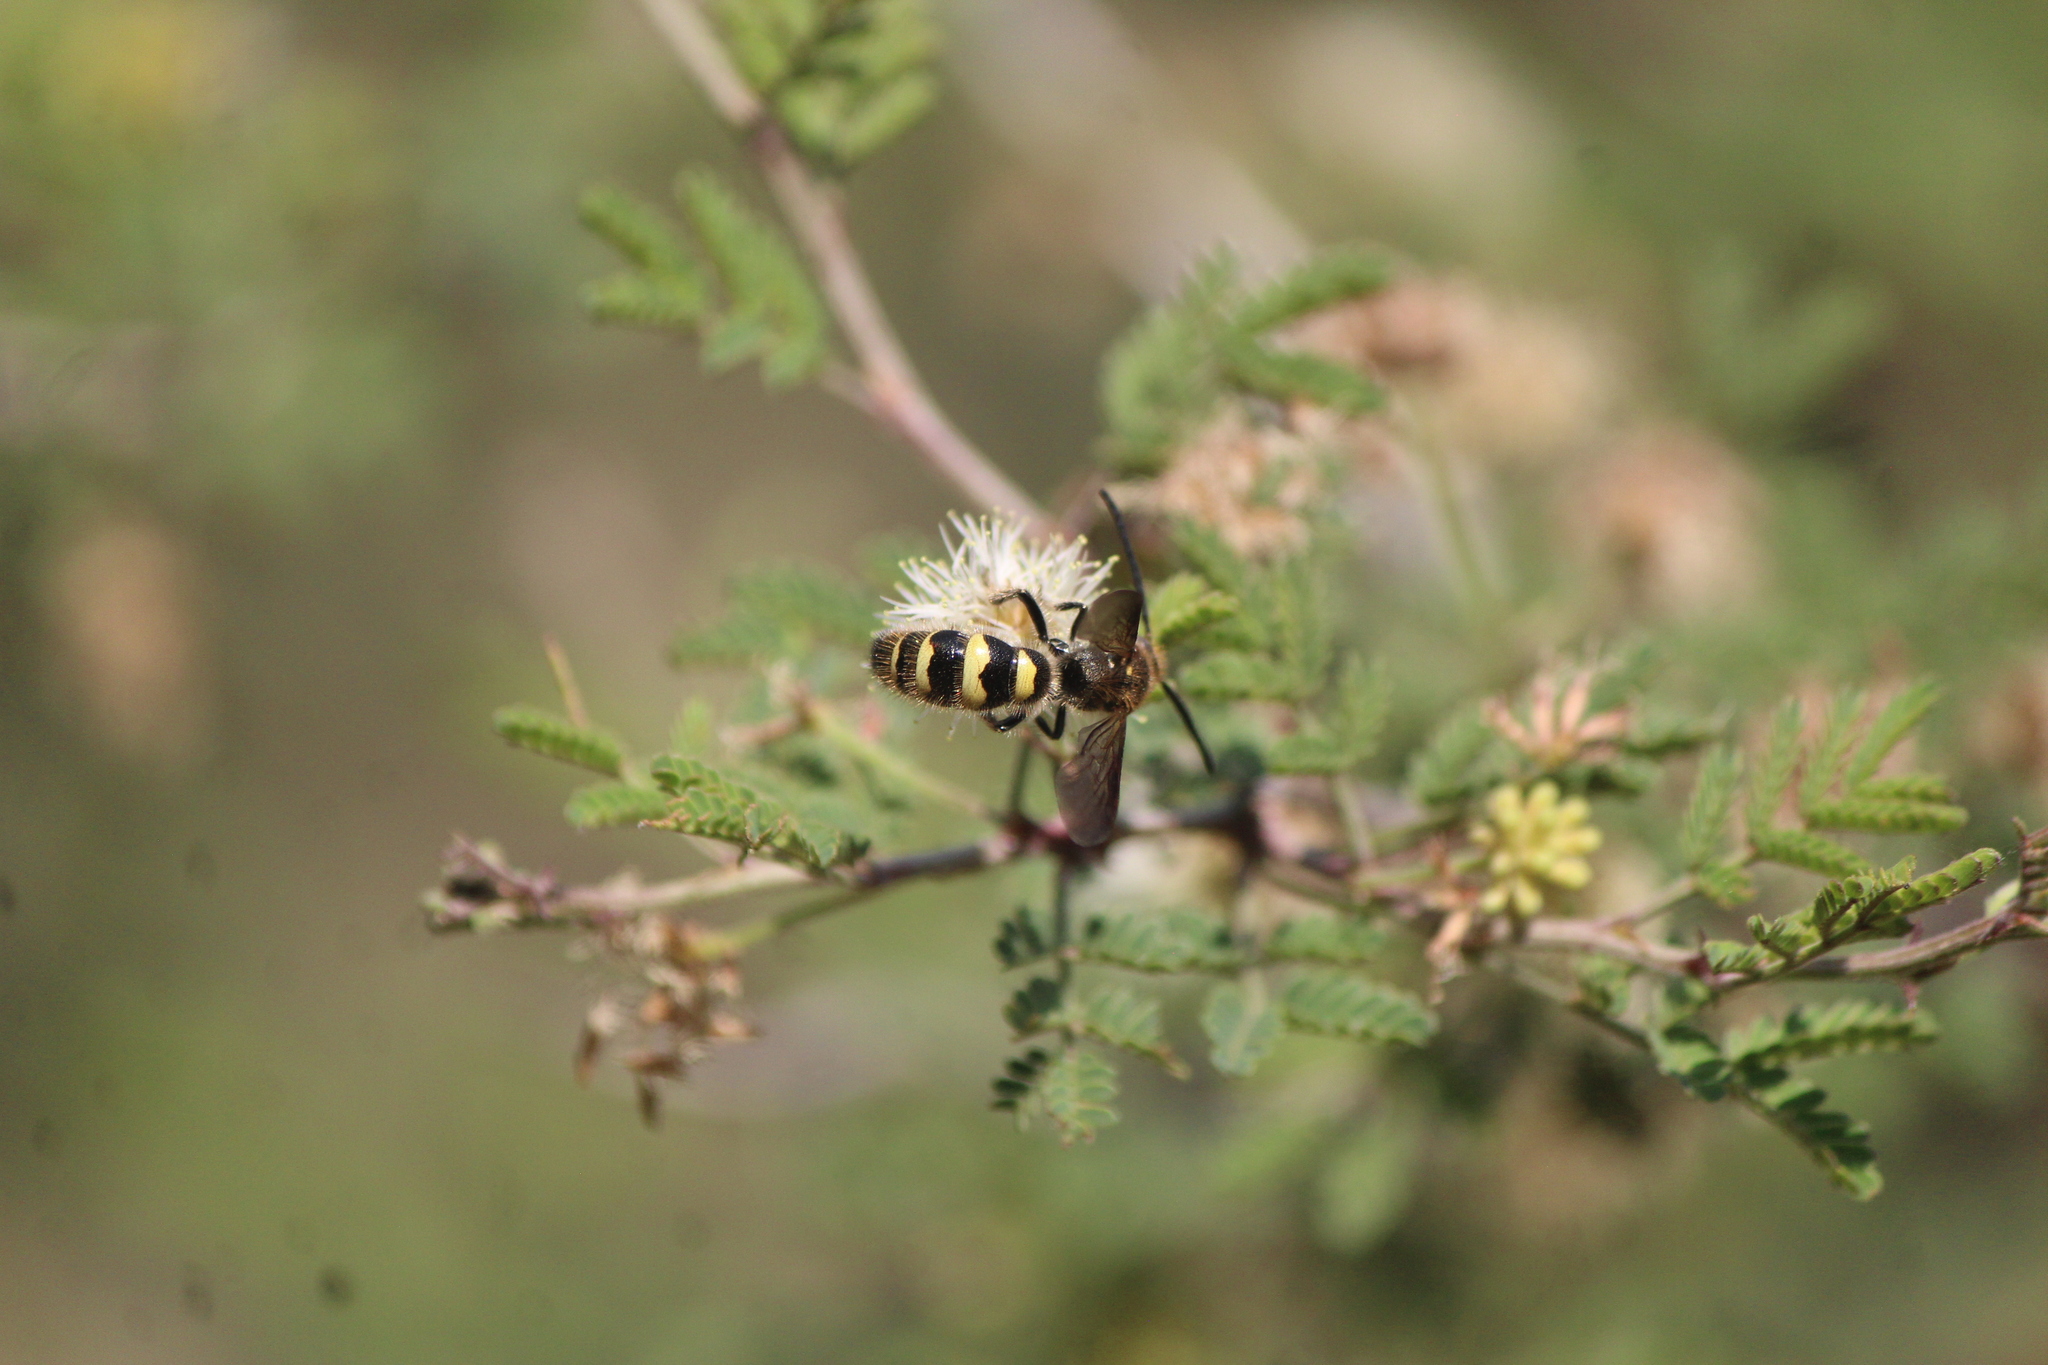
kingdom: Animalia
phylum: Arthropoda
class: Insecta
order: Hymenoptera
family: Scoliidae
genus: Xanthocampsomeris
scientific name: Xanthocampsomeris completa
